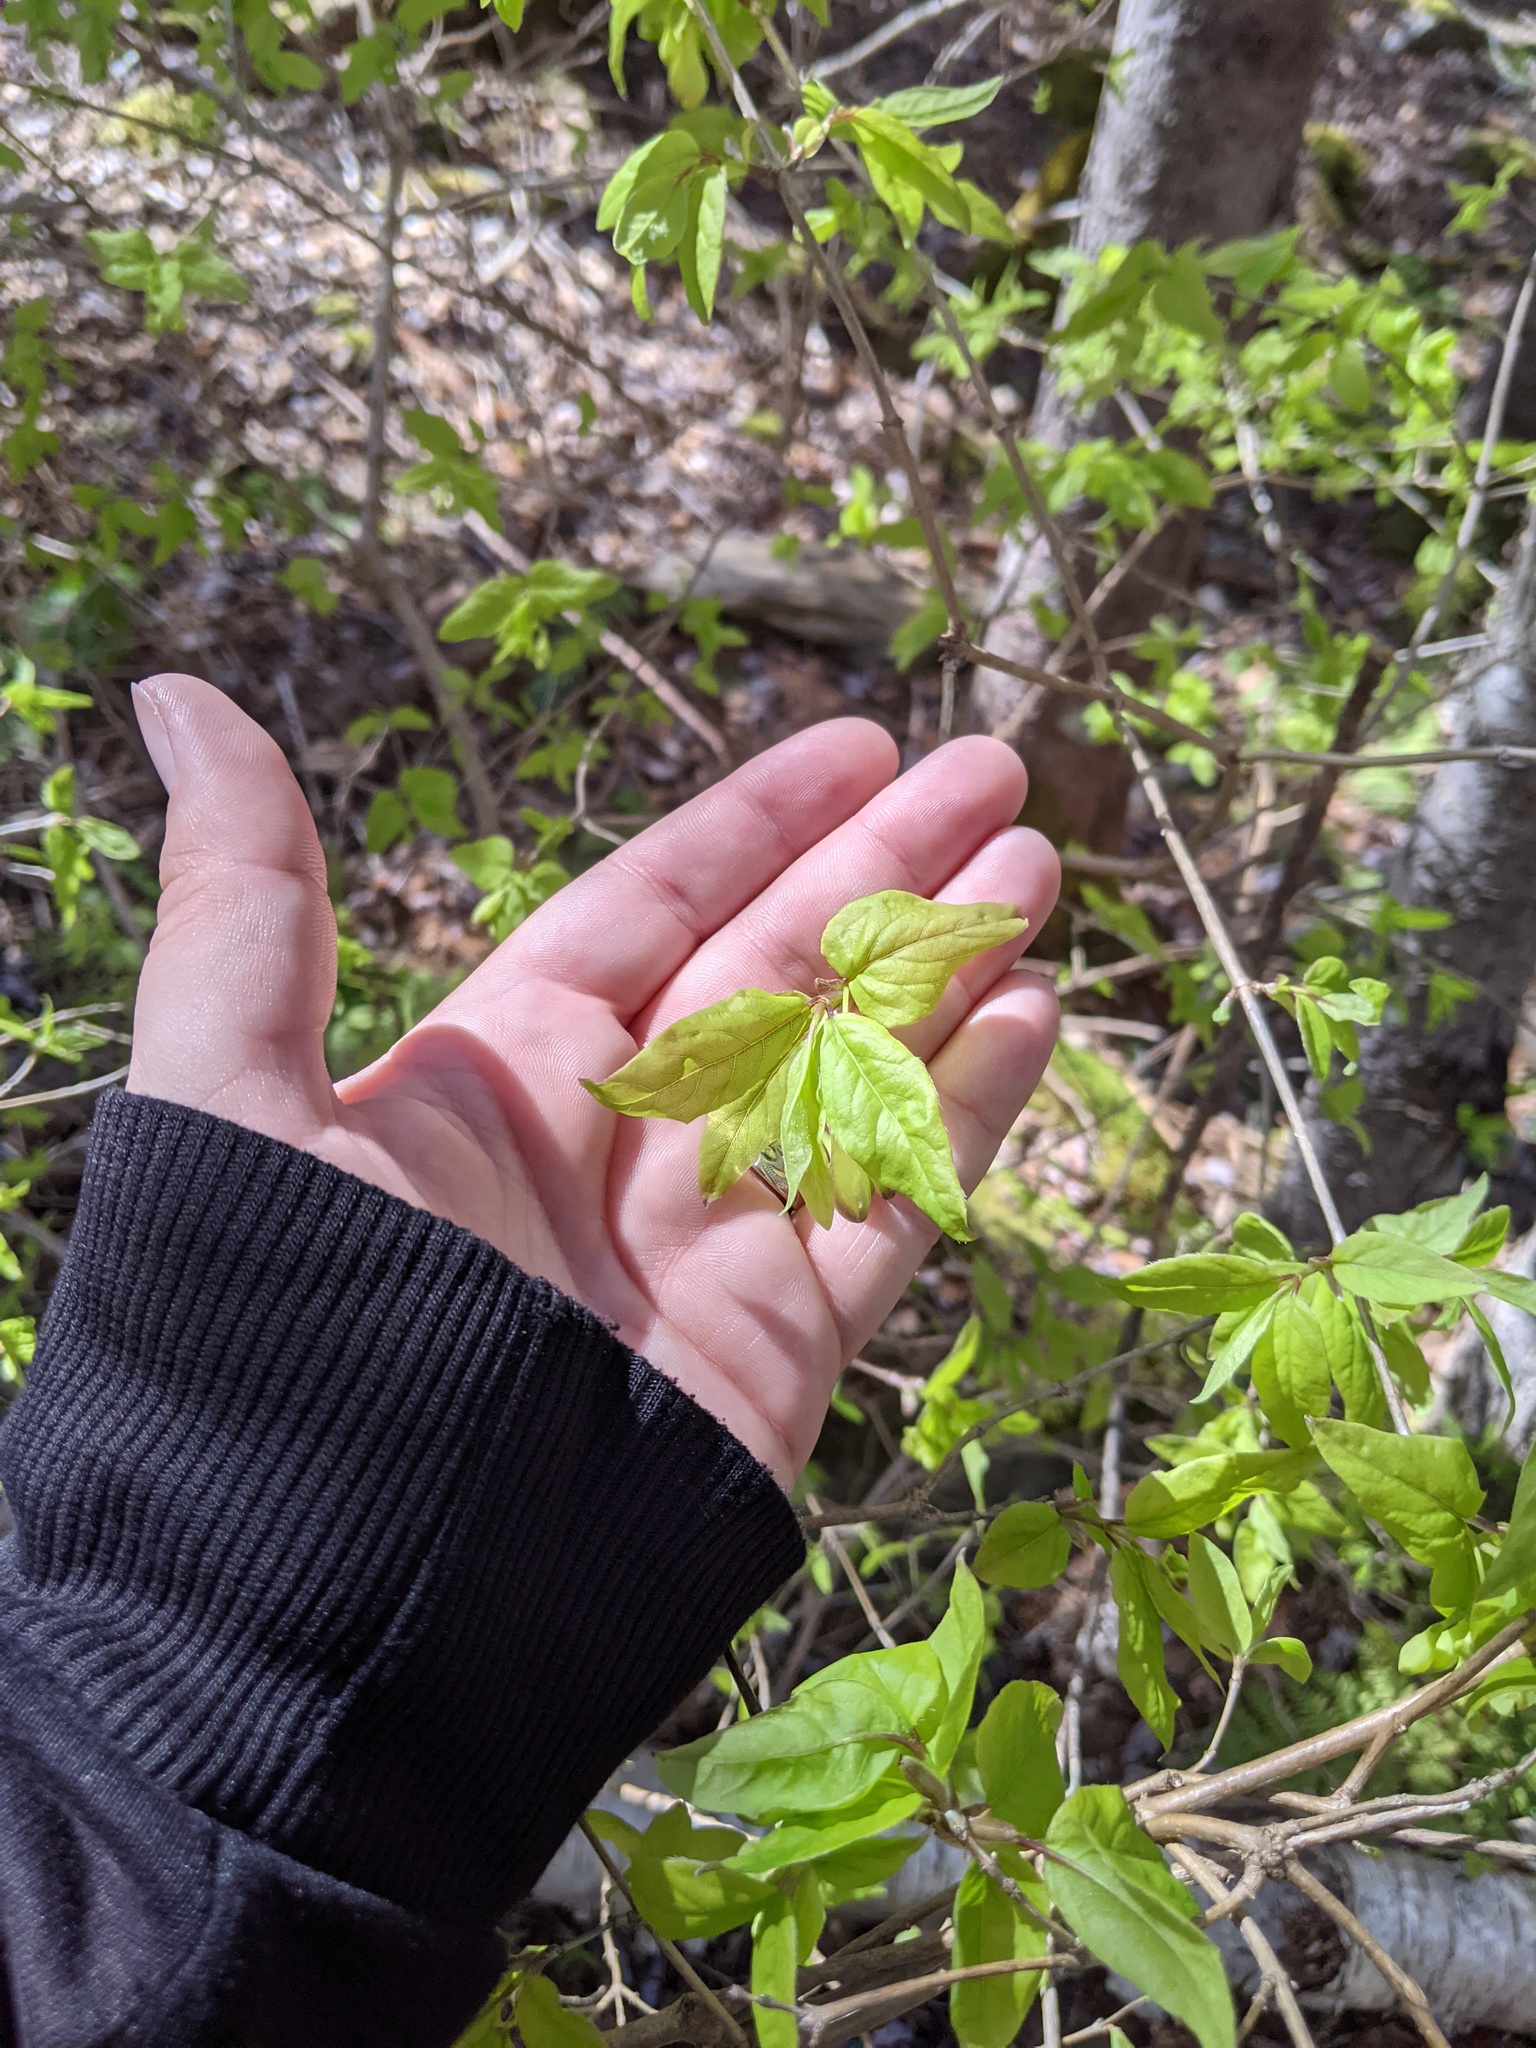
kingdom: Plantae
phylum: Tracheophyta
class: Magnoliopsida
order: Dipsacales
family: Caprifoliaceae
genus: Lonicera
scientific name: Lonicera canadensis
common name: American fly-honeysuckle
